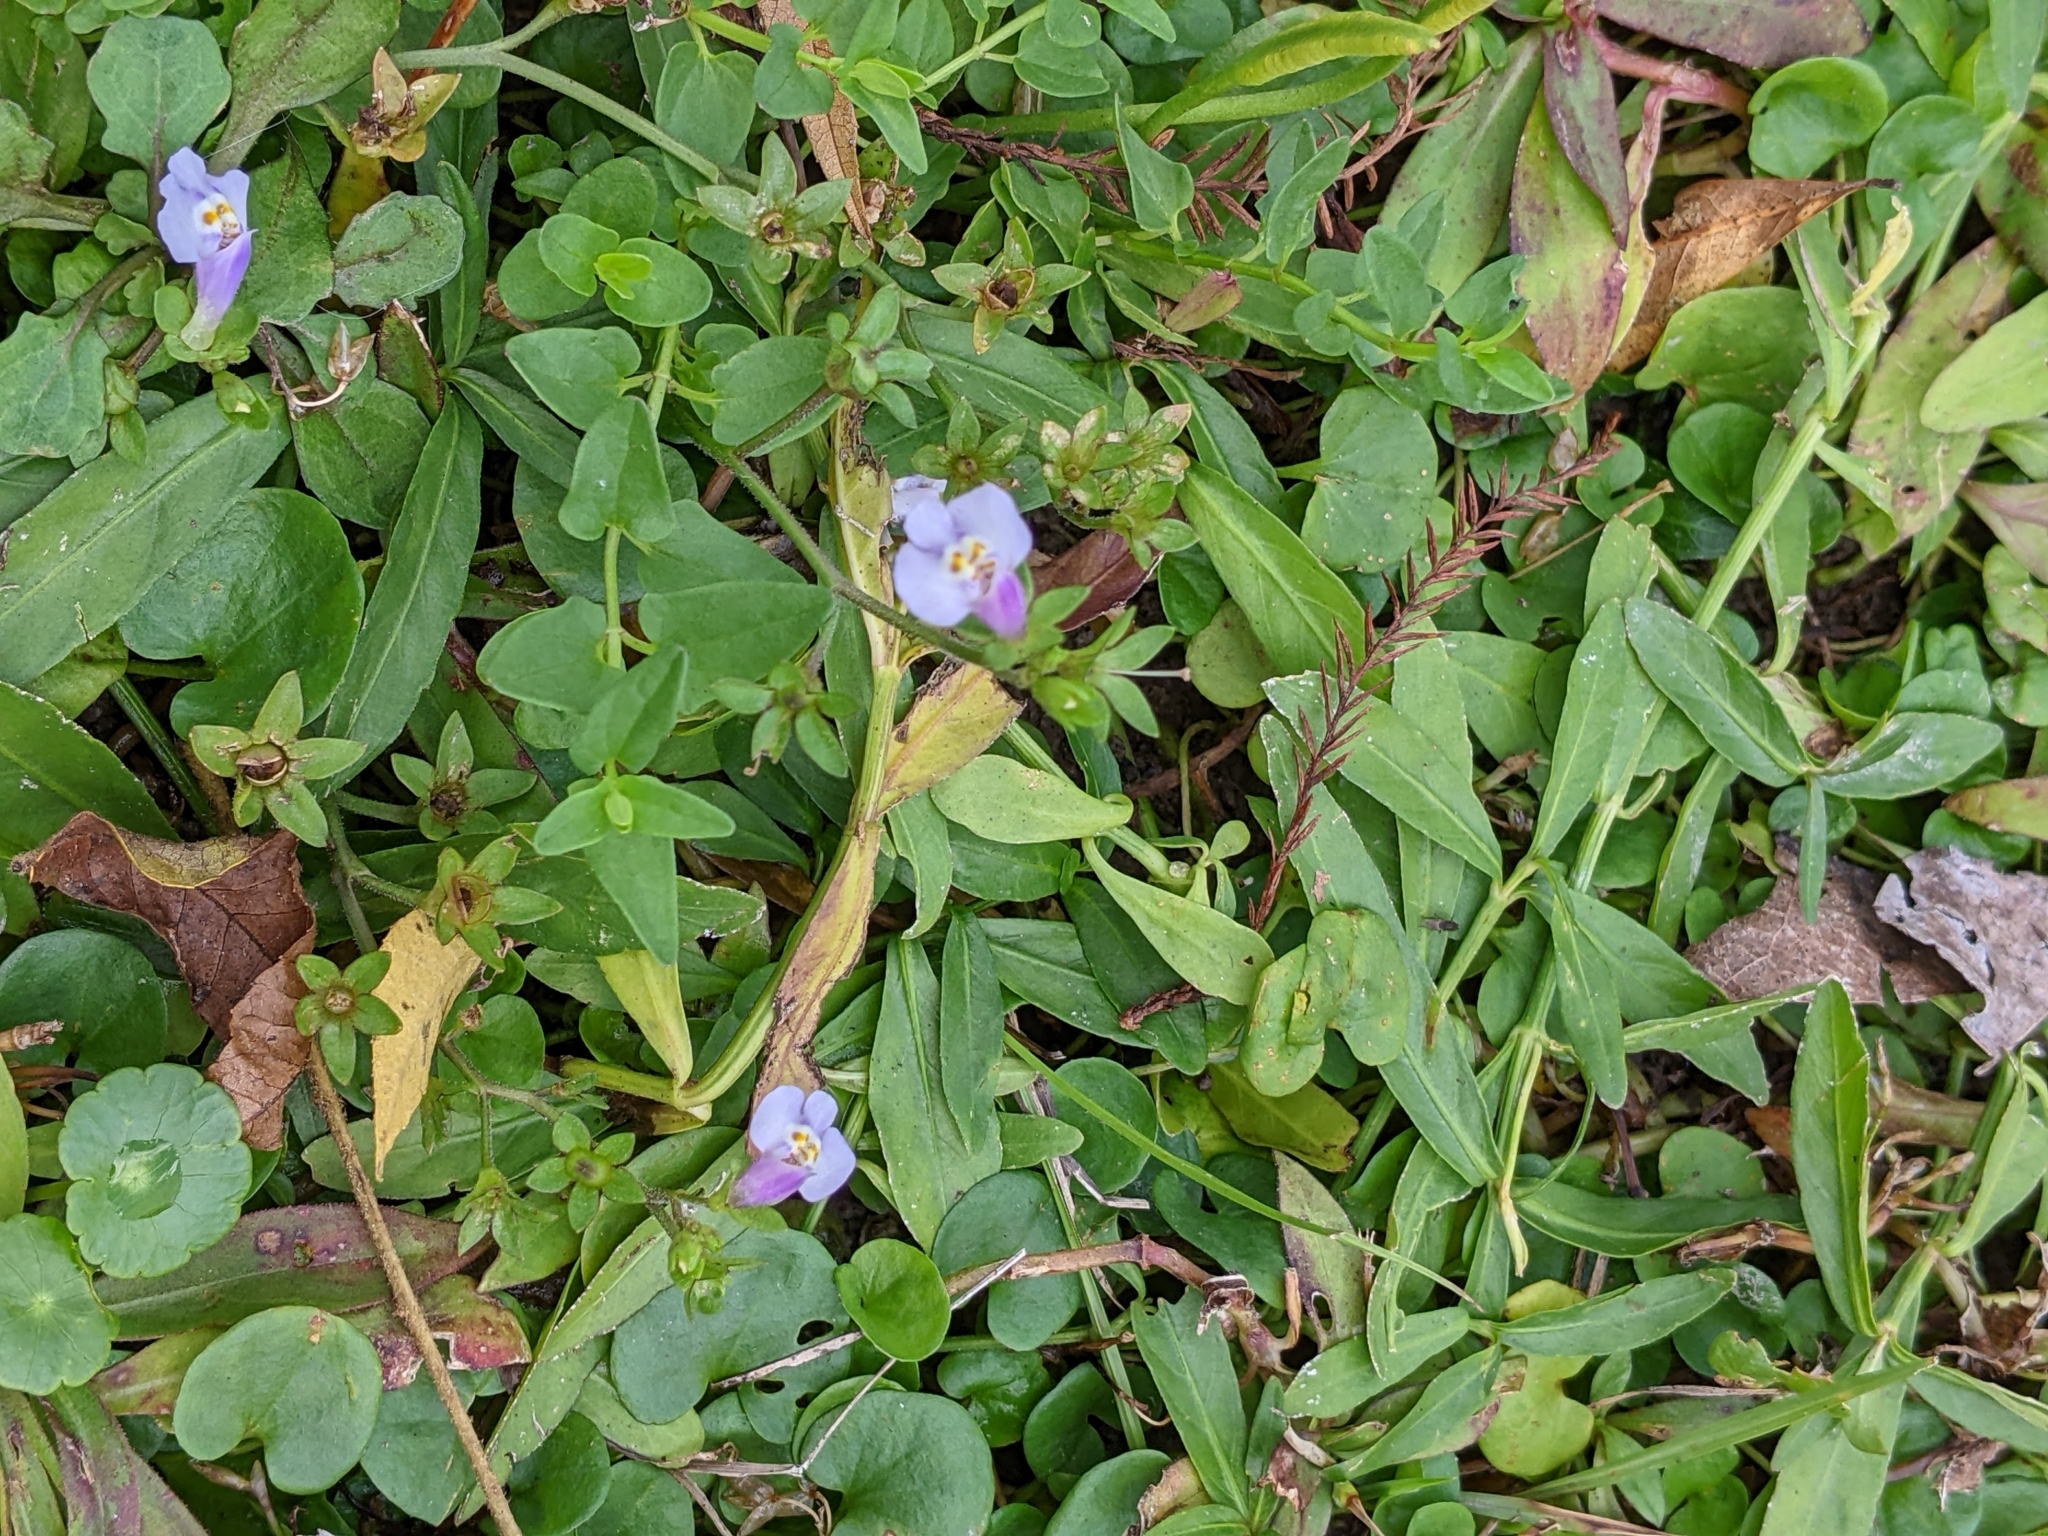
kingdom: Plantae
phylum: Tracheophyta
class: Magnoliopsida
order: Lamiales
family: Mazaceae
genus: Mazus
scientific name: Mazus pumilus
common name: Japanese mazus
